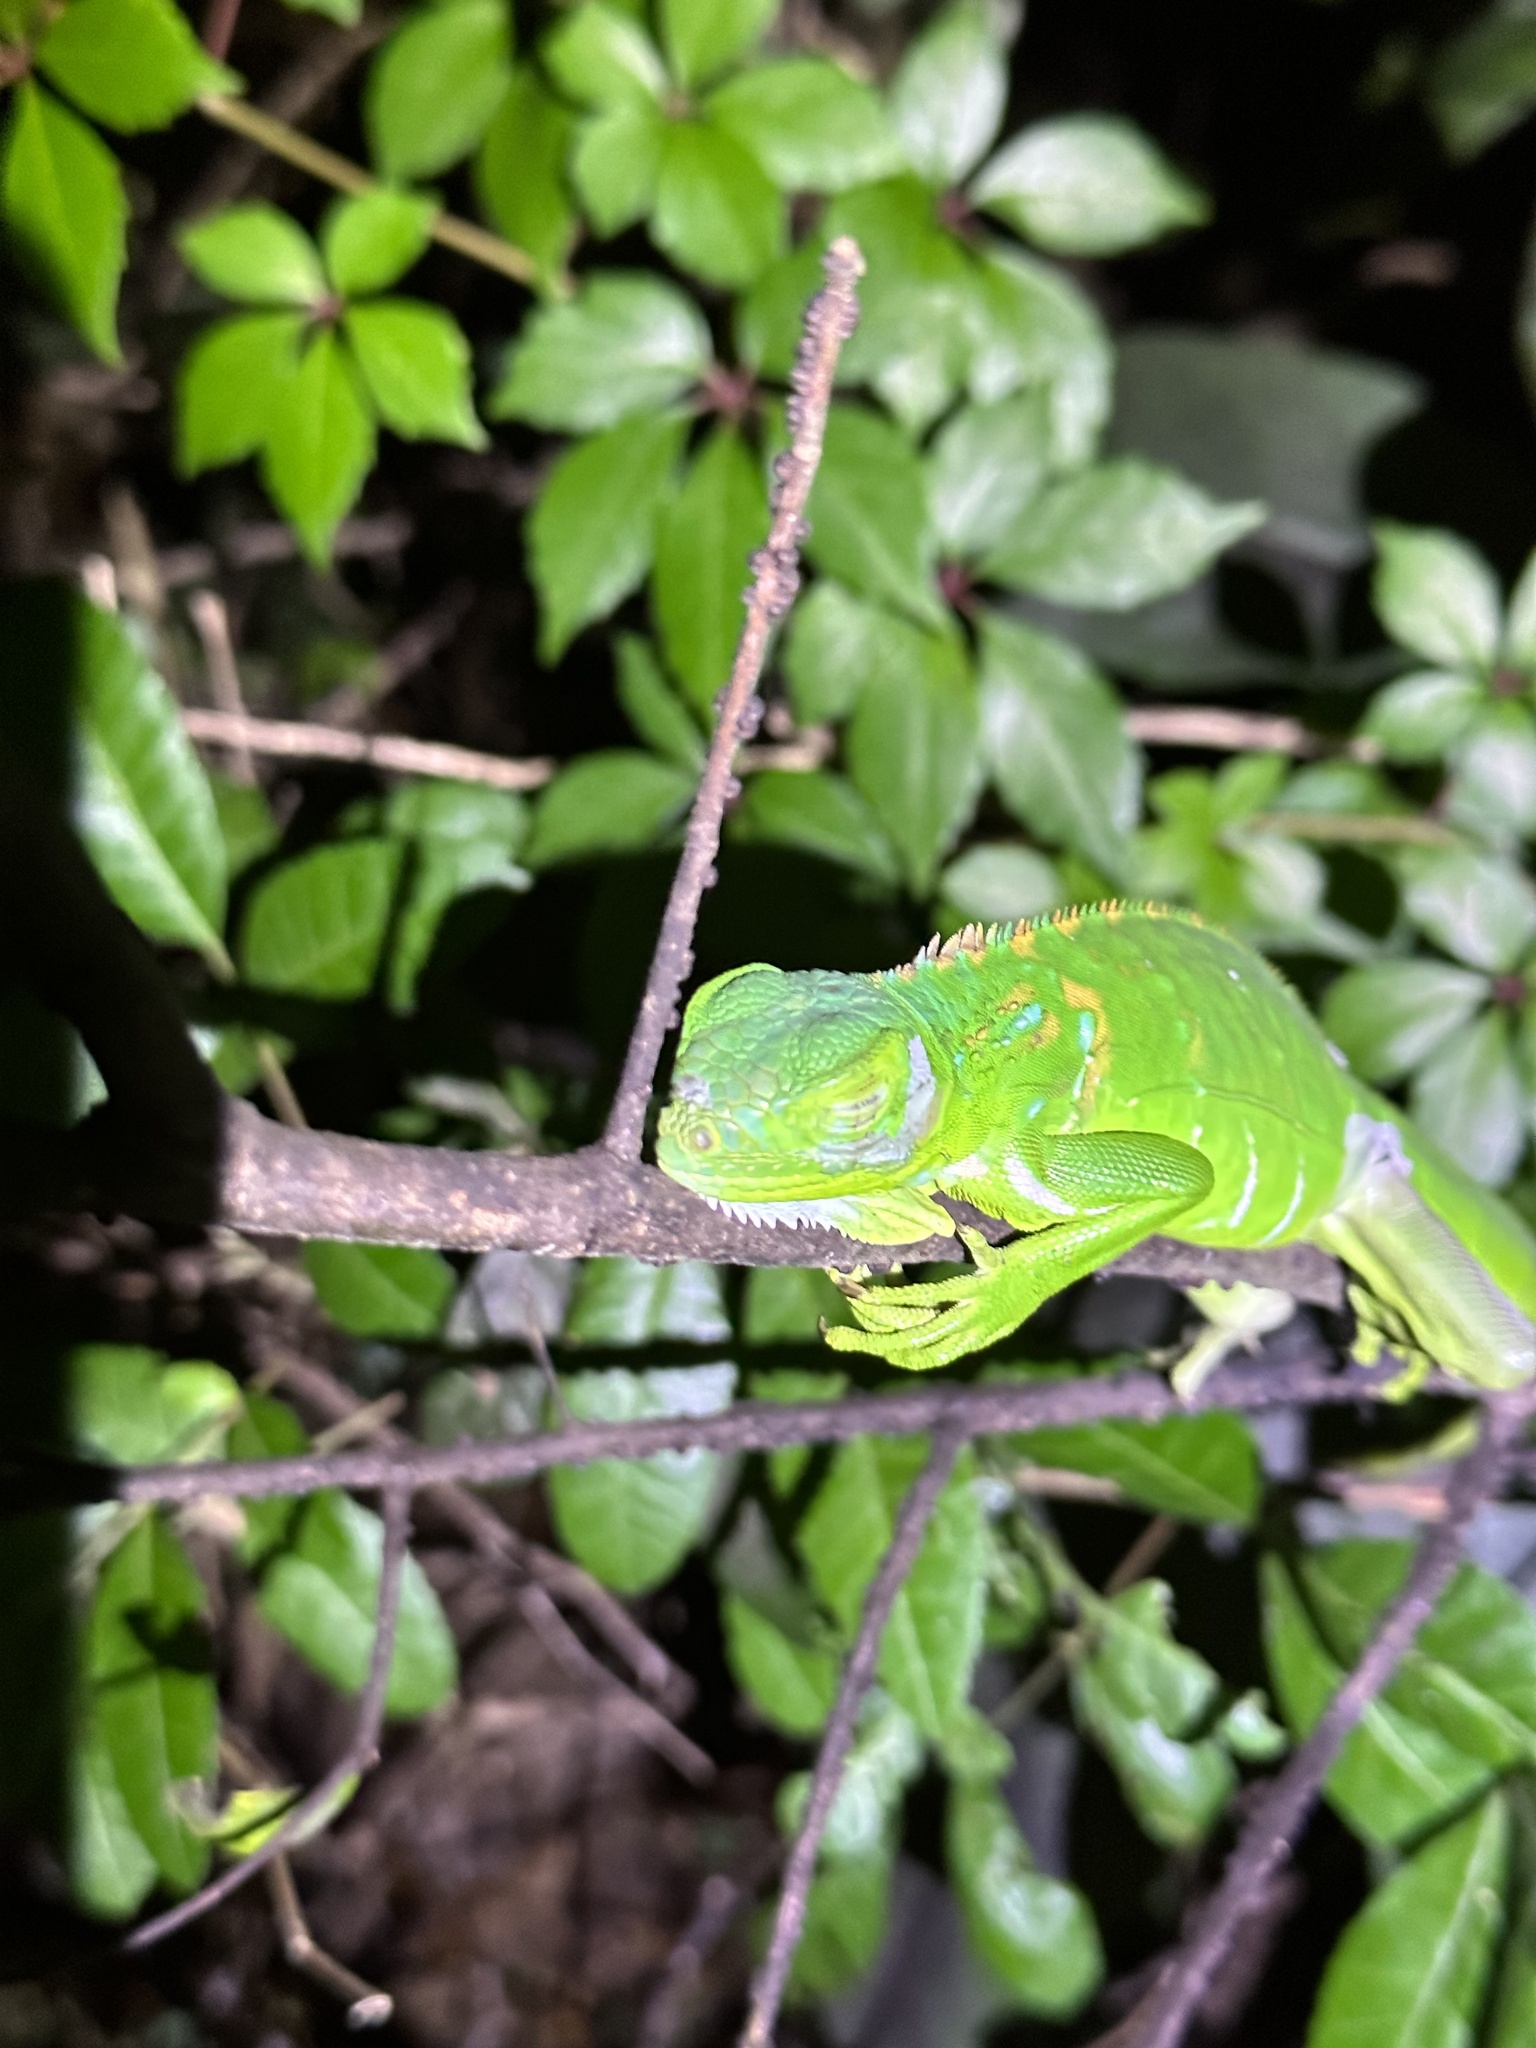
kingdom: Animalia
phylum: Chordata
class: Squamata
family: Iguanidae
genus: Iguana
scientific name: Iguana iguana
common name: Green iguana
